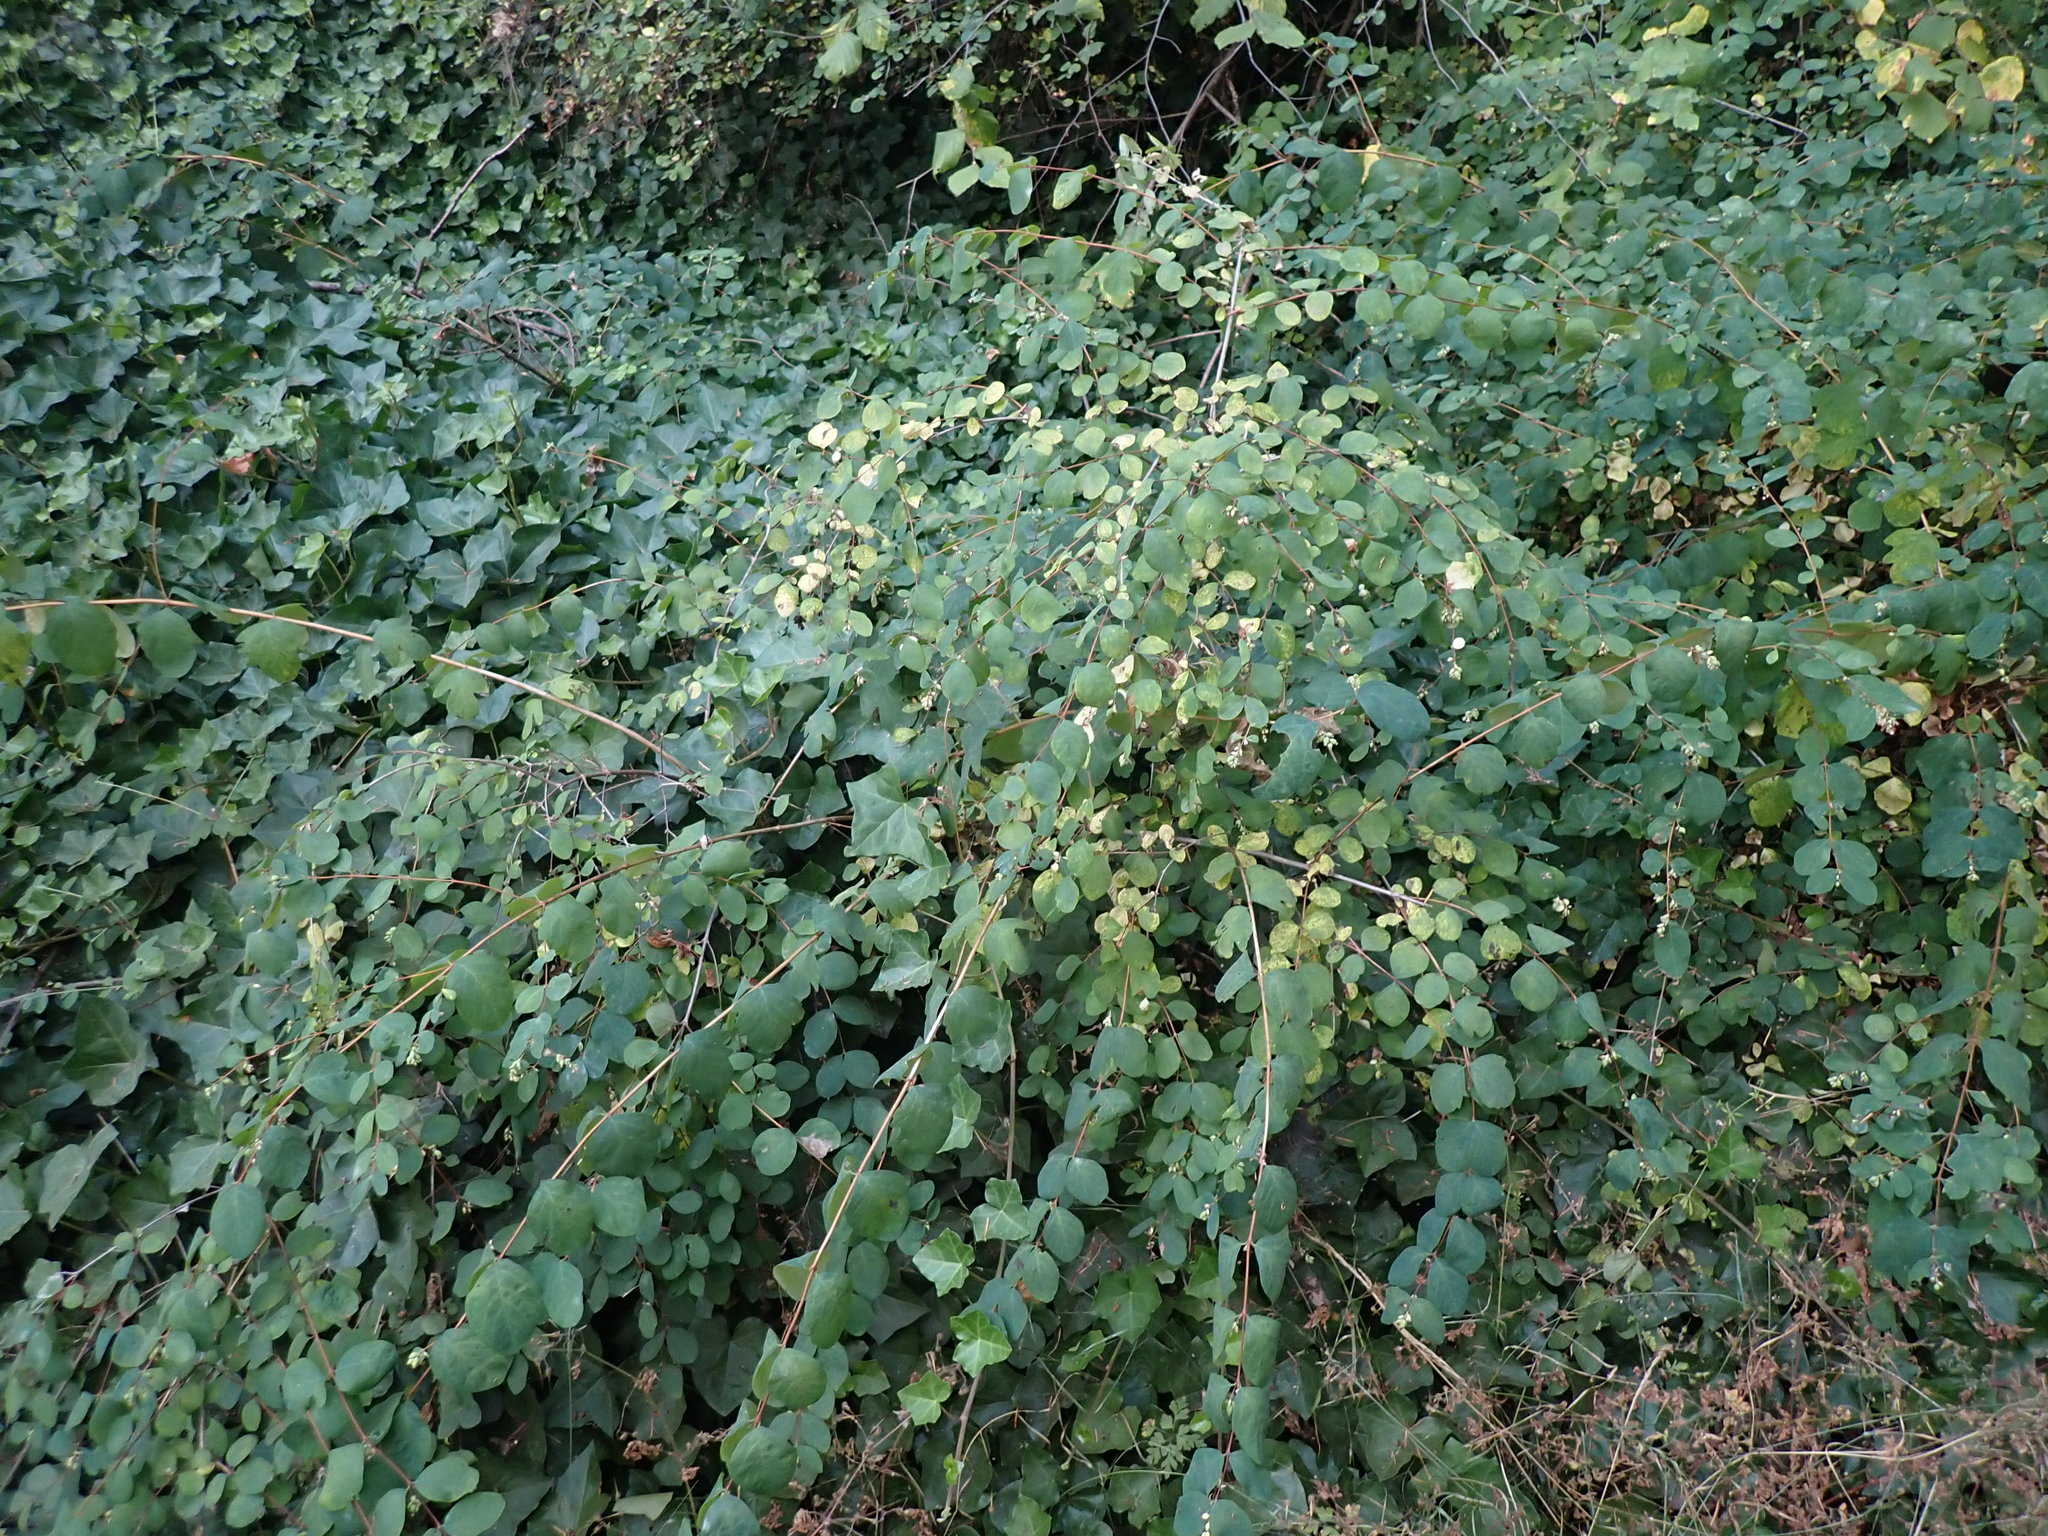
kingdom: Plantae
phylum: Tracheophyta
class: Magnoliopsida
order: Dipsacales
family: Caprifoliaceae
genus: Symphoricarpos
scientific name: Symphoricarpos albus
